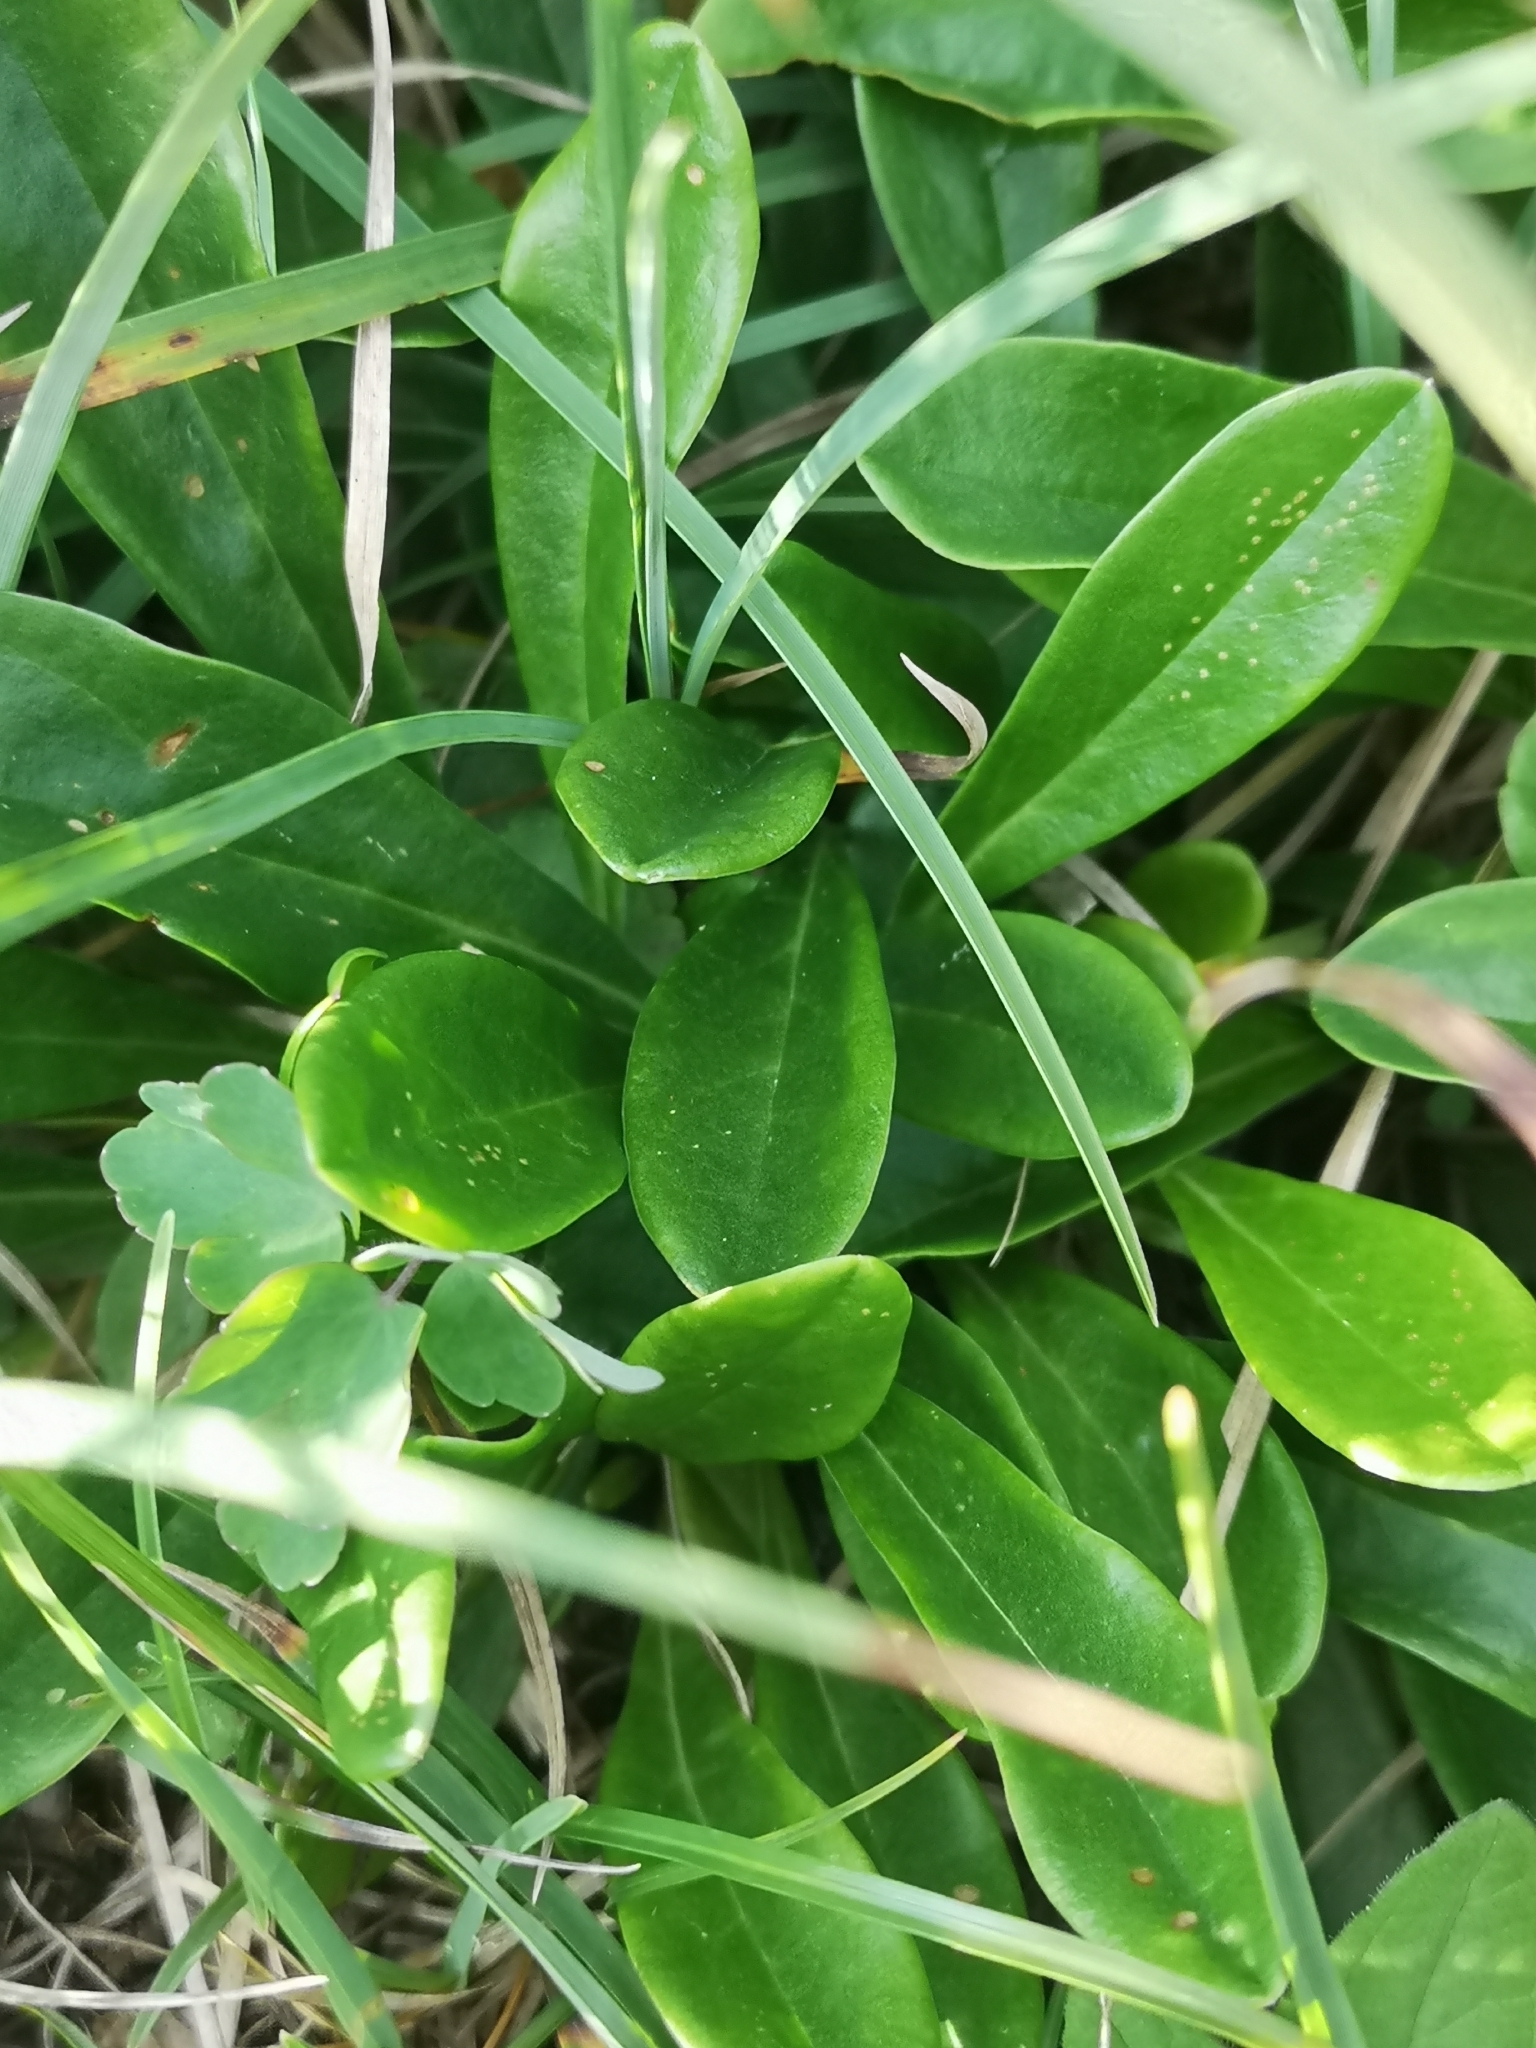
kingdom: Plantae
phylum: Tracheophyta
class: Magnoliopsida
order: Lamiales
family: Plantaginaceae
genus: Globularia
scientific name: Globularia nudicaulis
